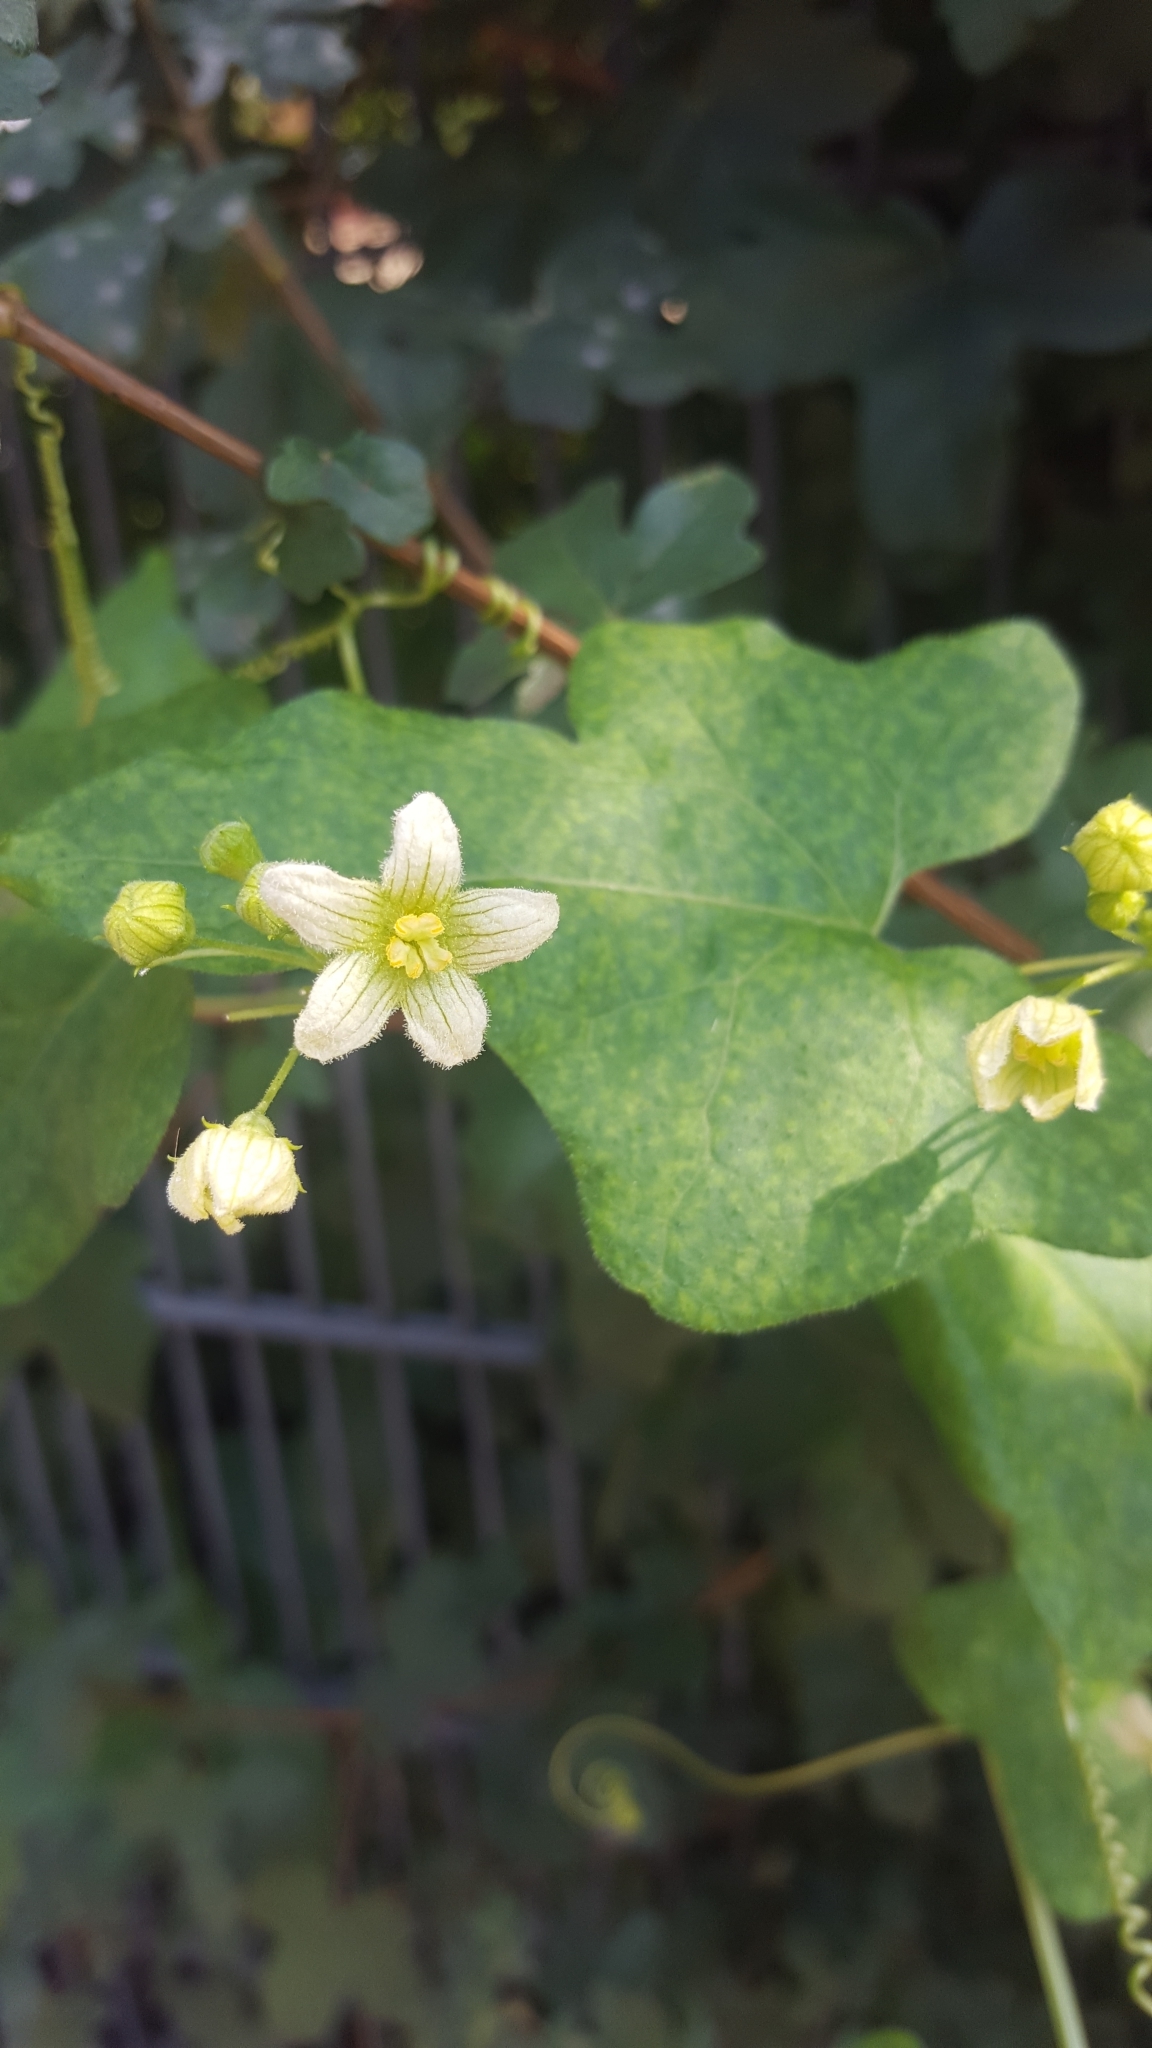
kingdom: Plantae
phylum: Tracheophyta
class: Magnoliopsida
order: Cucurbitales
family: Cucurbitaceae
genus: Bryonia
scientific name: Bryonia cretica
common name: Cretan bryony
